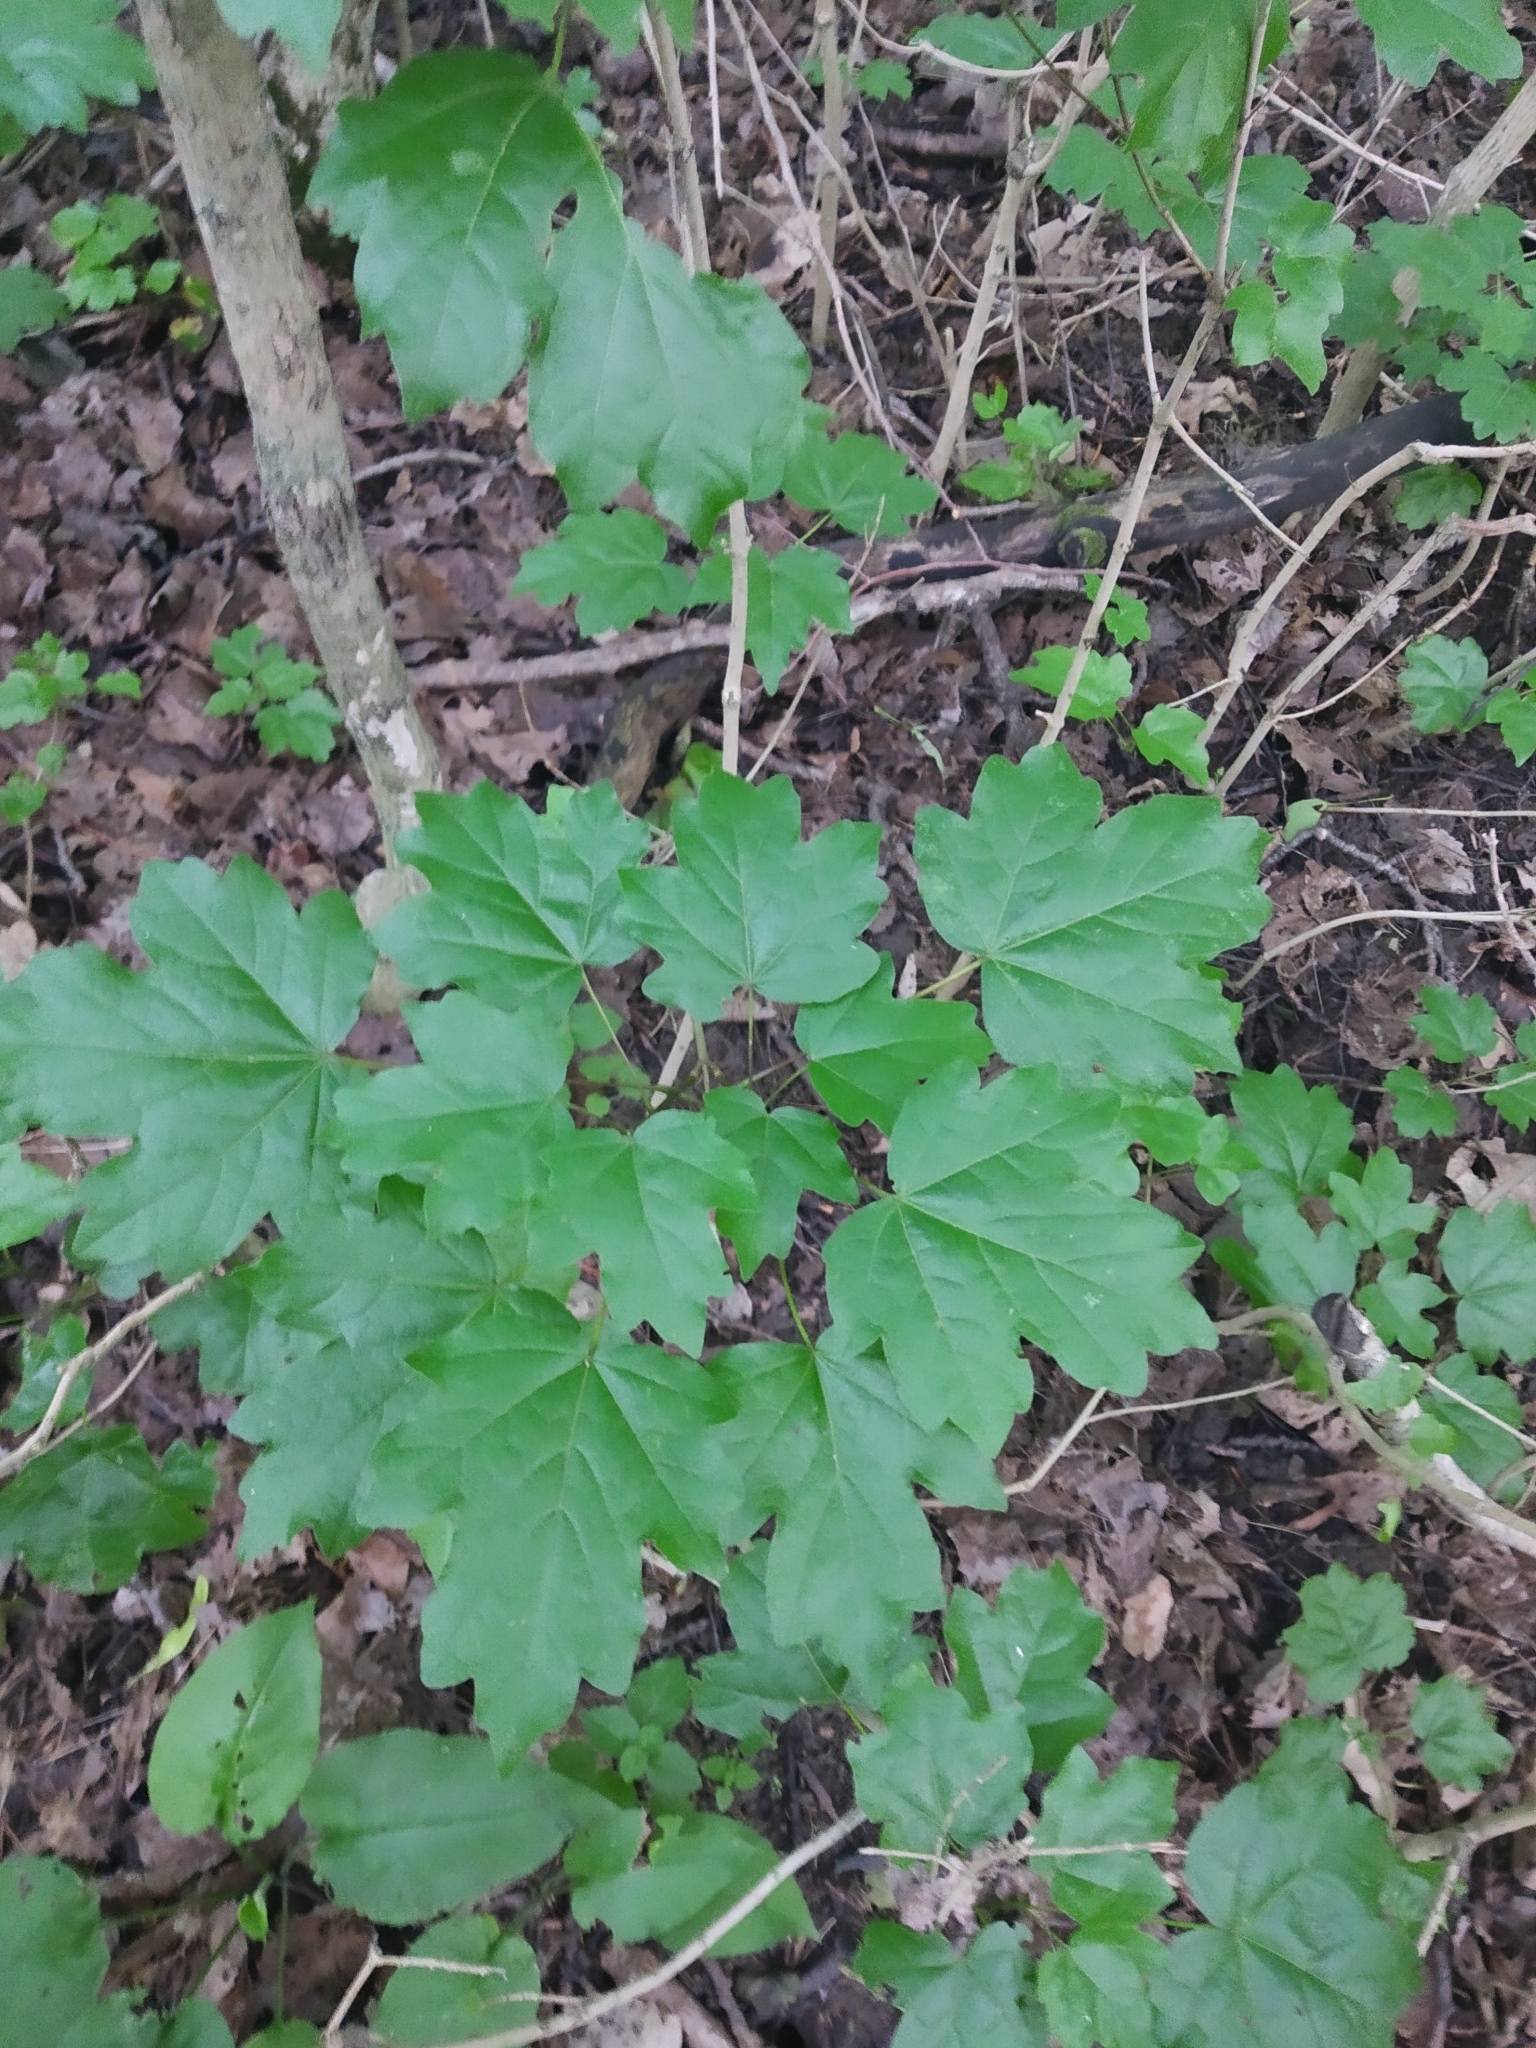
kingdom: Plantae
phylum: Tracheophyta
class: Magnoliopsida
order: Sapindales
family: Sapindaceae
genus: Acer
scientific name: Acer campestre
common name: Field maple
